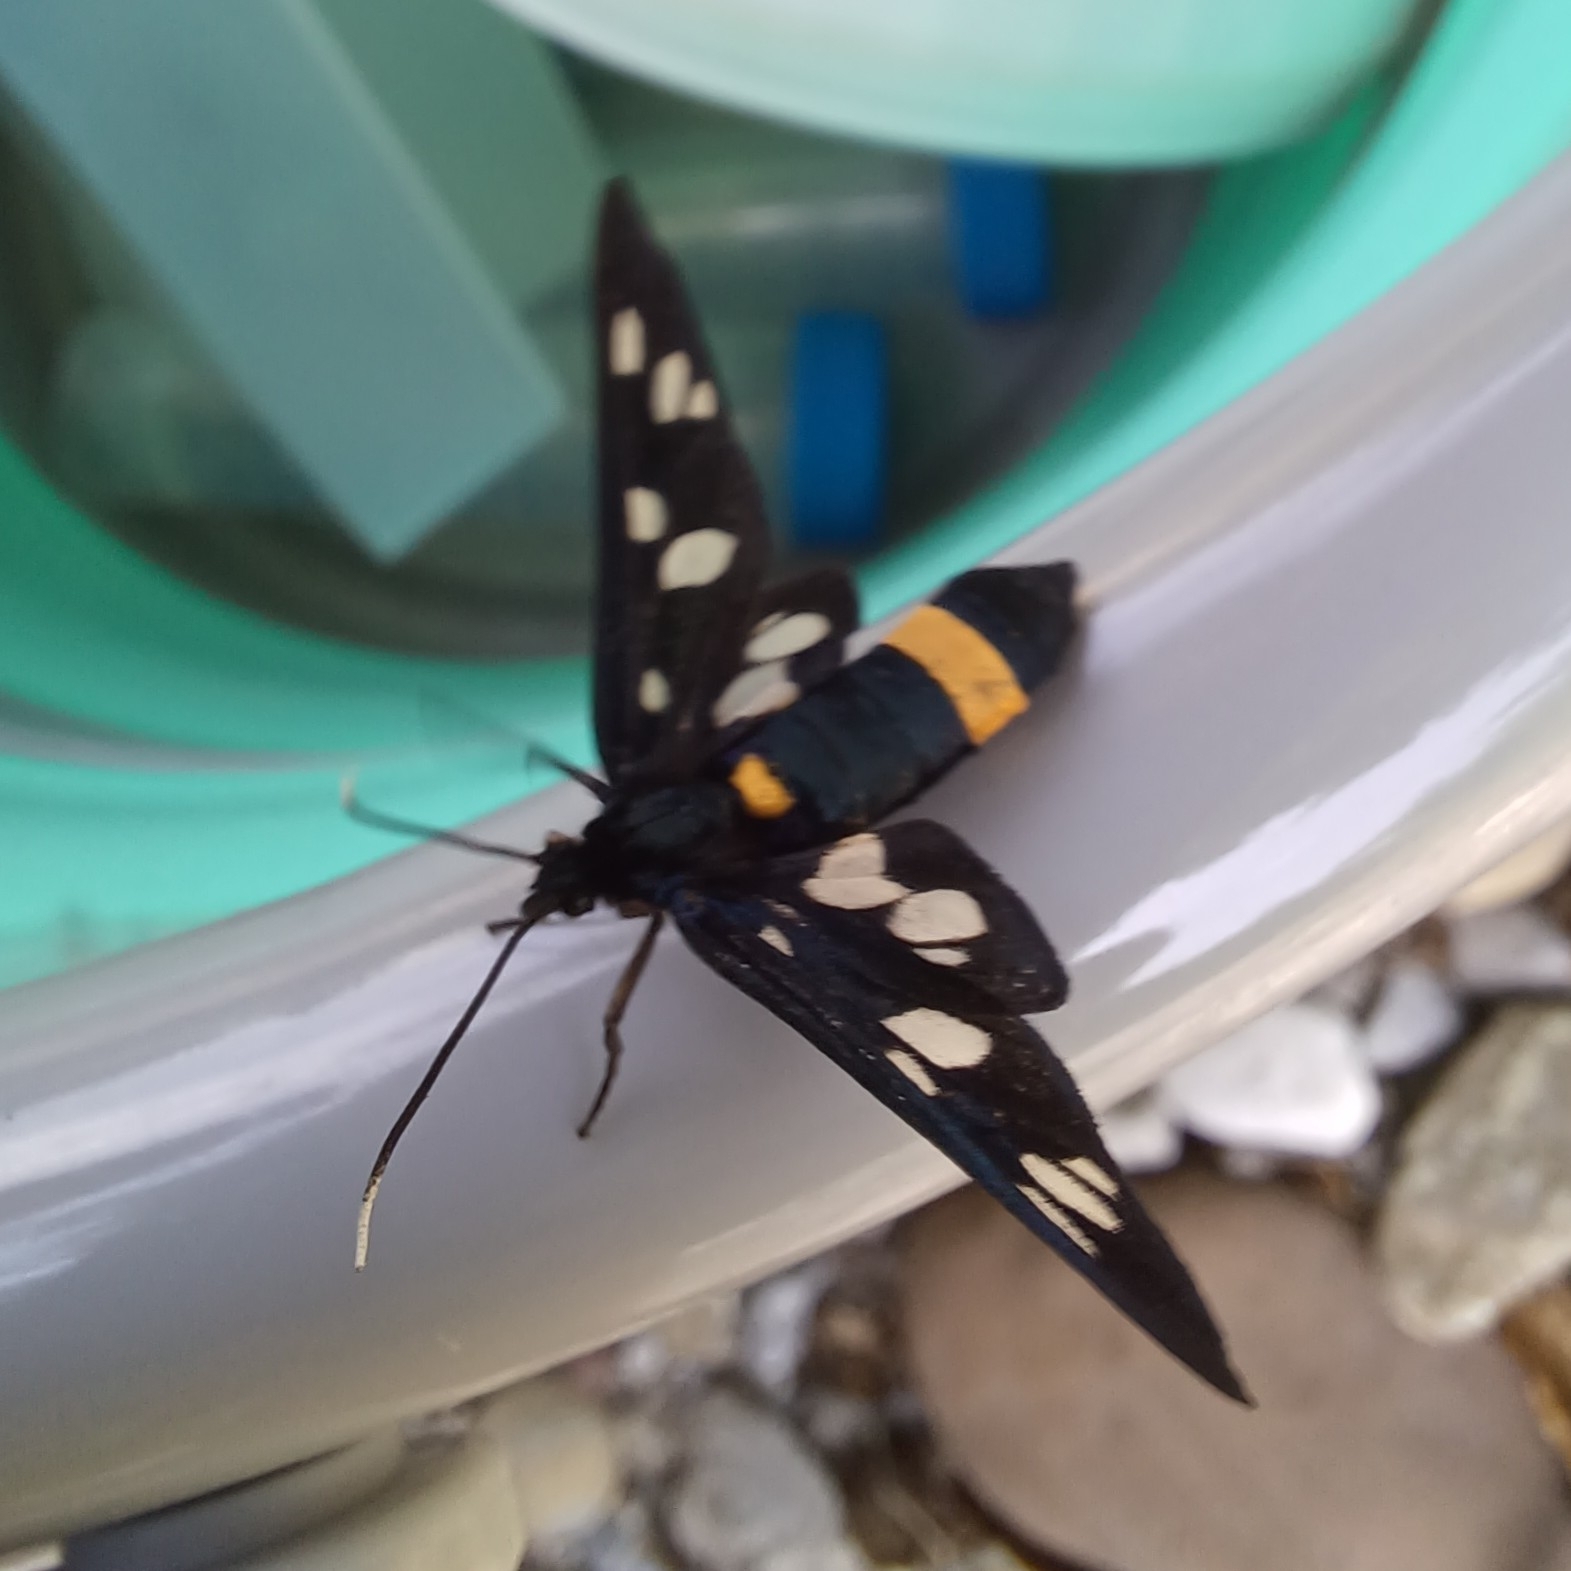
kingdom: Animalia
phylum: Arthropoda
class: Insecta
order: Lepidoptera
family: Erebidae
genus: Amata
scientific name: Amata phegea
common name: Nine-spotted
